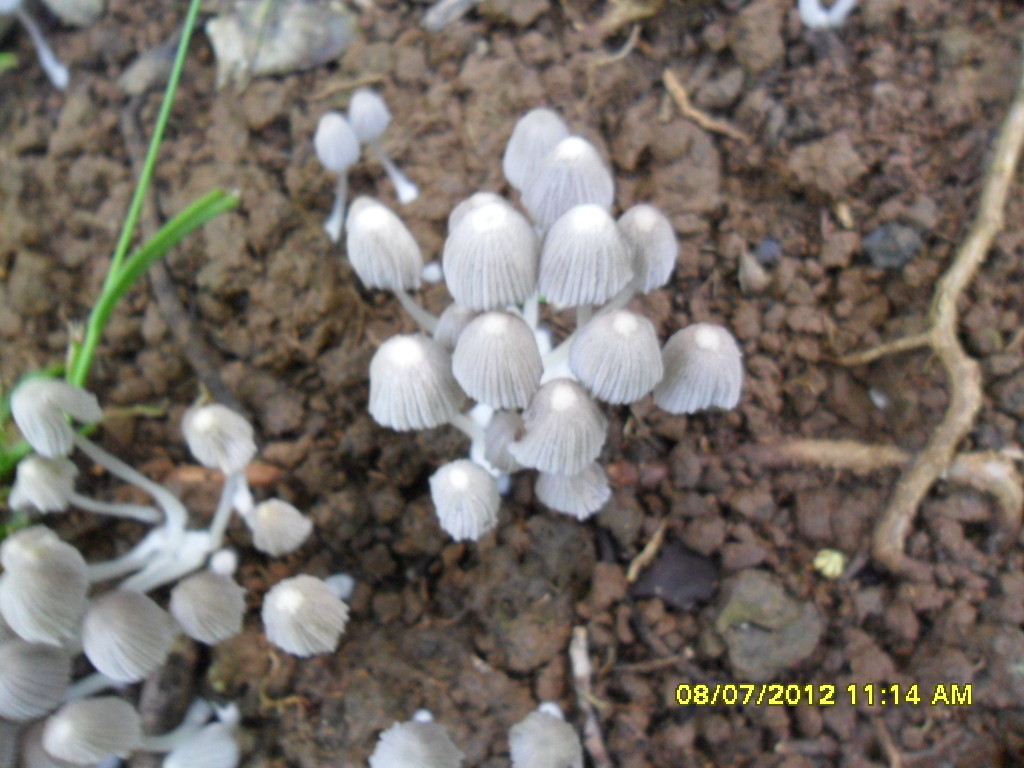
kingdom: Fungi
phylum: Basidiomycota
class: Agaricomycetes
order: Agaricales
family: Psathyrellaceae
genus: Coprinellus
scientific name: Coprinellus disseminatus
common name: Fairies' bonnets
